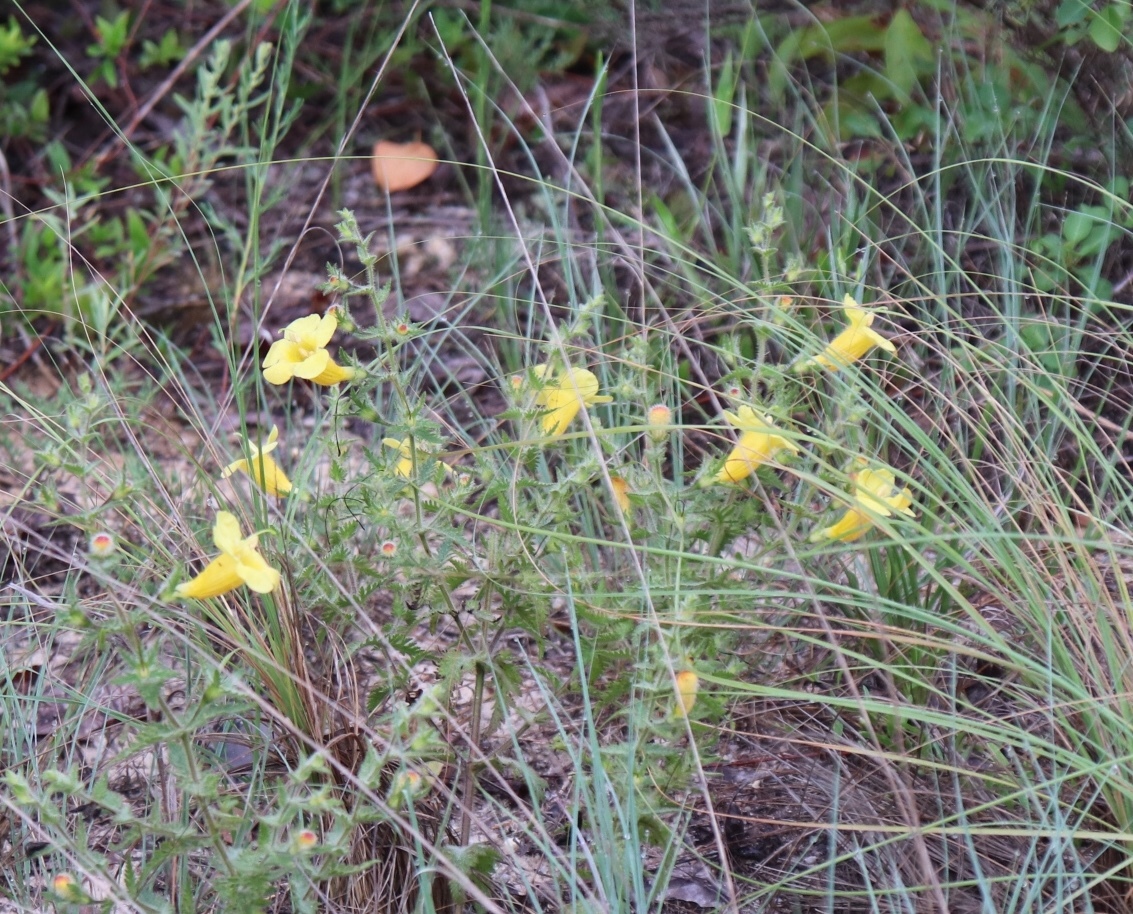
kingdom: Plantae
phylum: Tracheophyta
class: Magnoliopsida
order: Lamiales
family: Orobanchaceae
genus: Aureolaria
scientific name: Aureolaria pectinata
